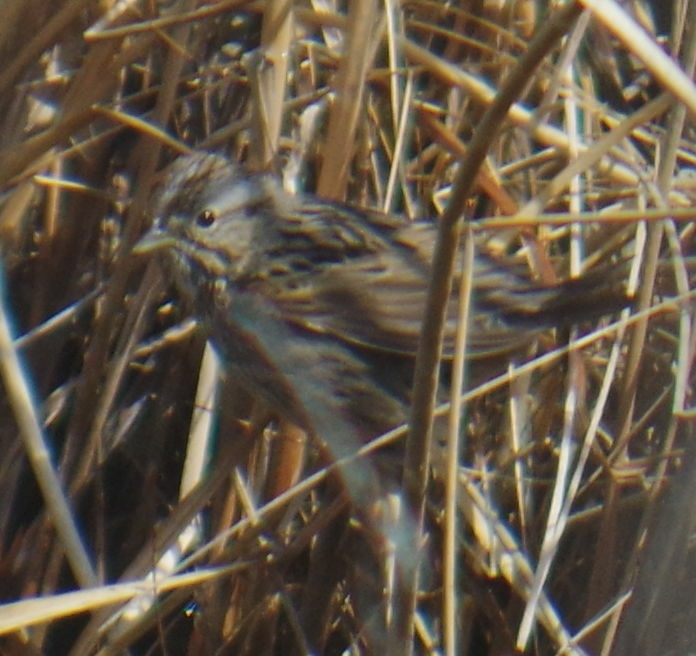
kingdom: Animalia
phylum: Chordata
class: Aves
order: Passeriformes
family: Passerellidae
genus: Melospiza
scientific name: Melospiza lincolnii
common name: Lincoln's sparrow
